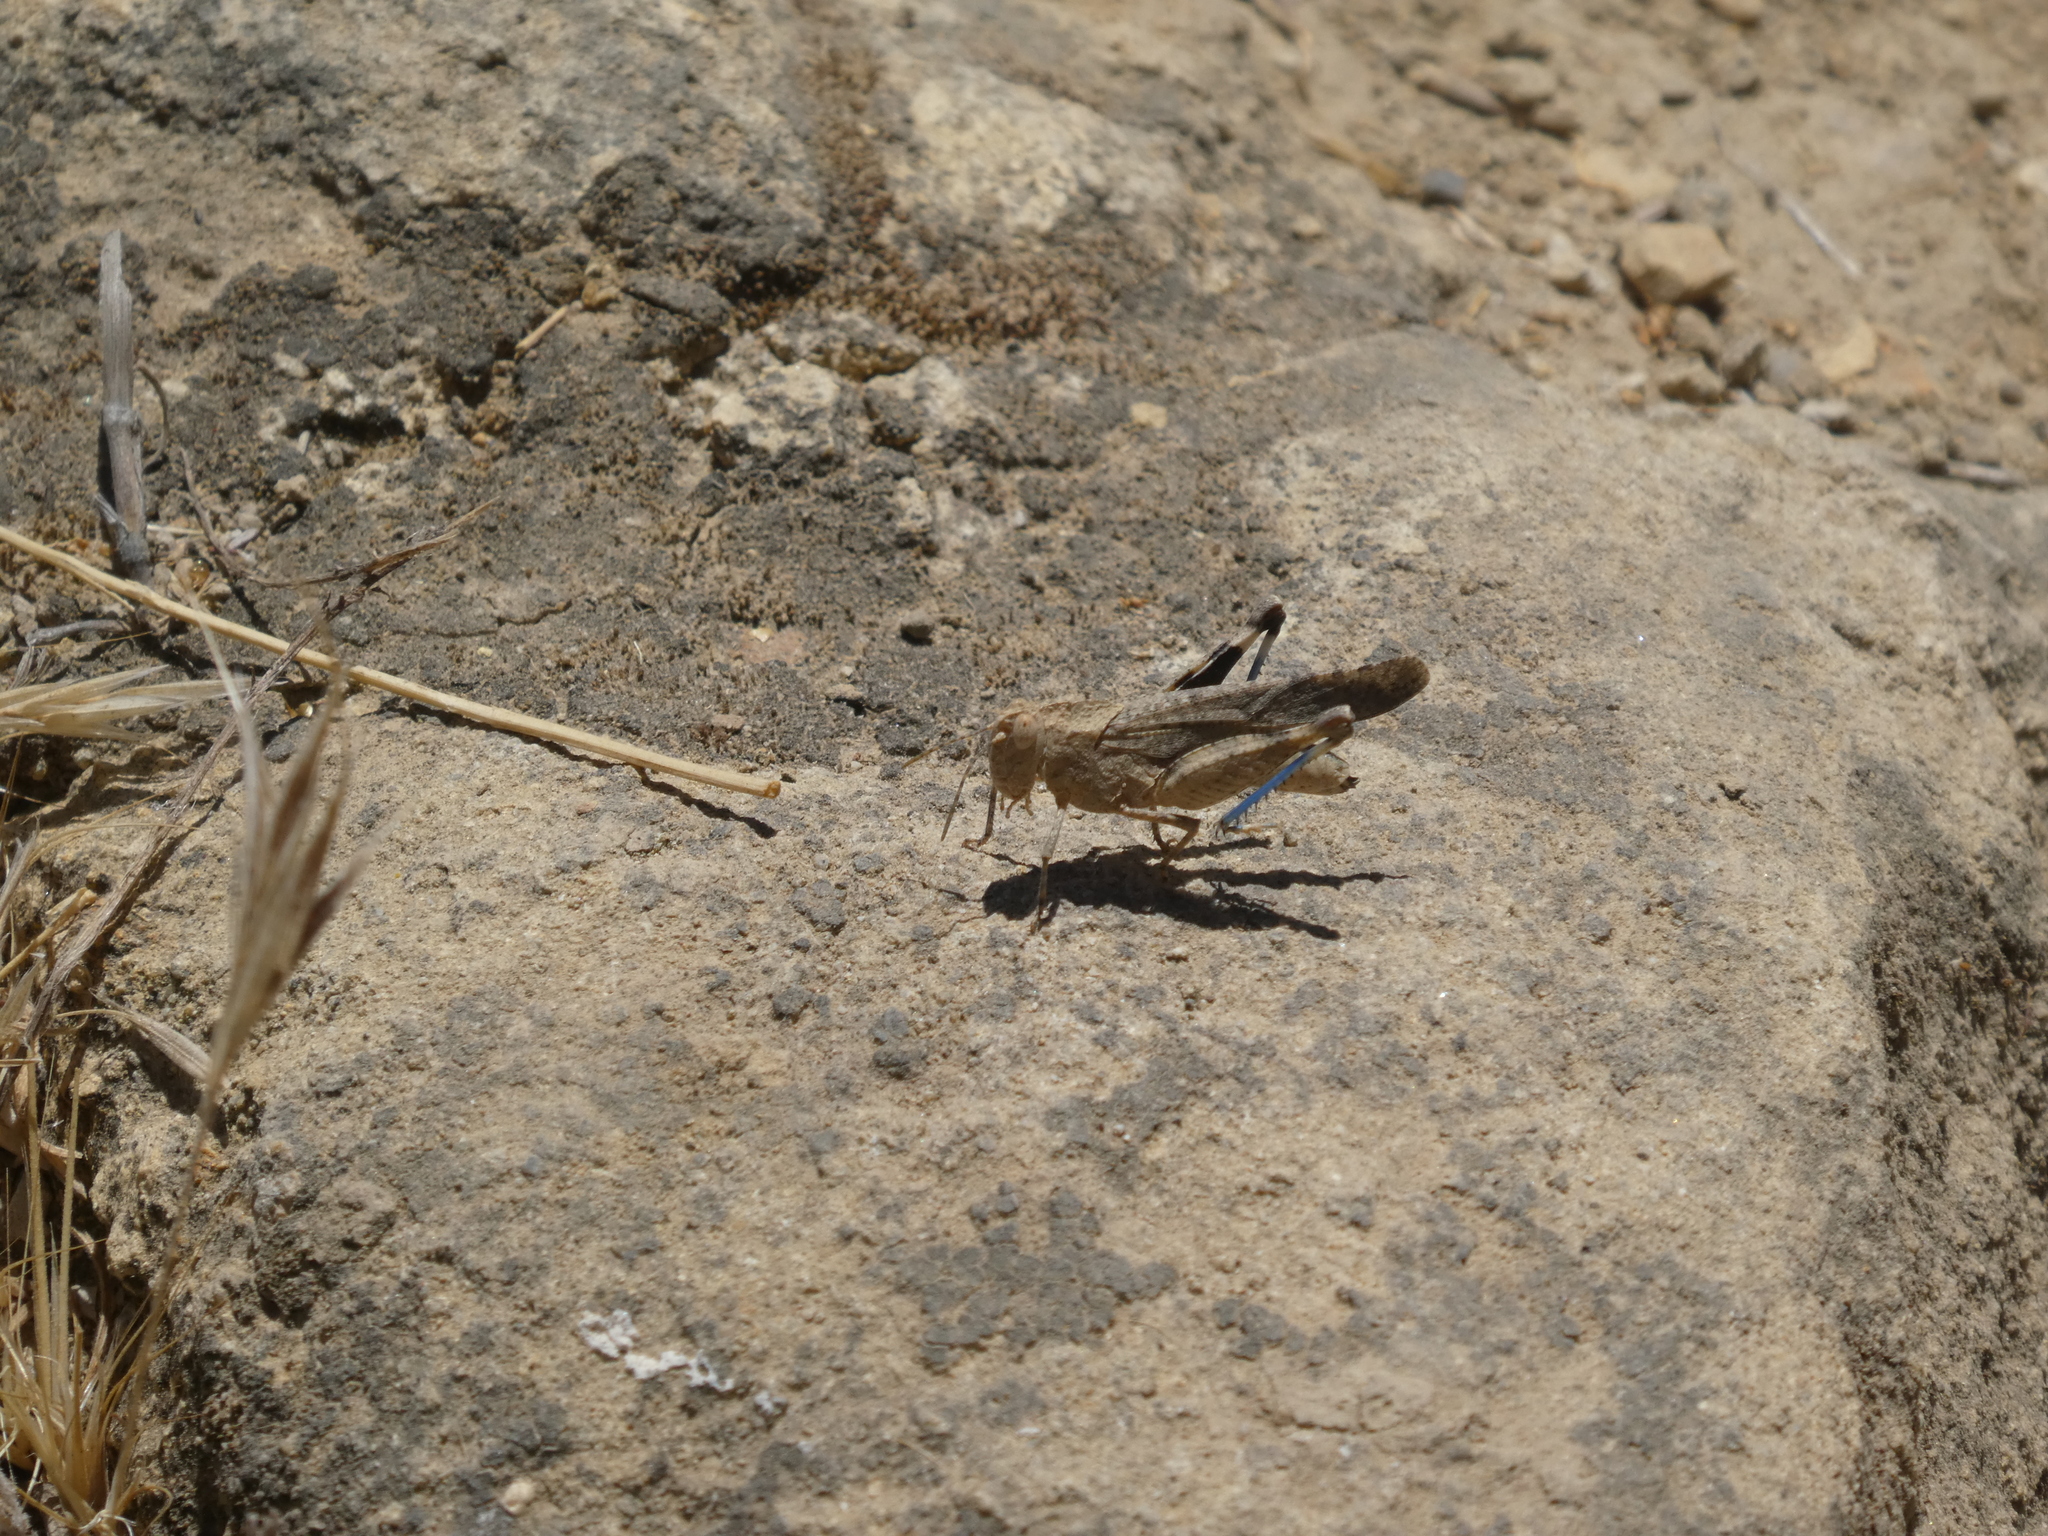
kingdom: Animalia
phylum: Arthropoda
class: Insecta
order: Orthoptera
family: Acrididae
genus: Lactista
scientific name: Lactista gibbosus
